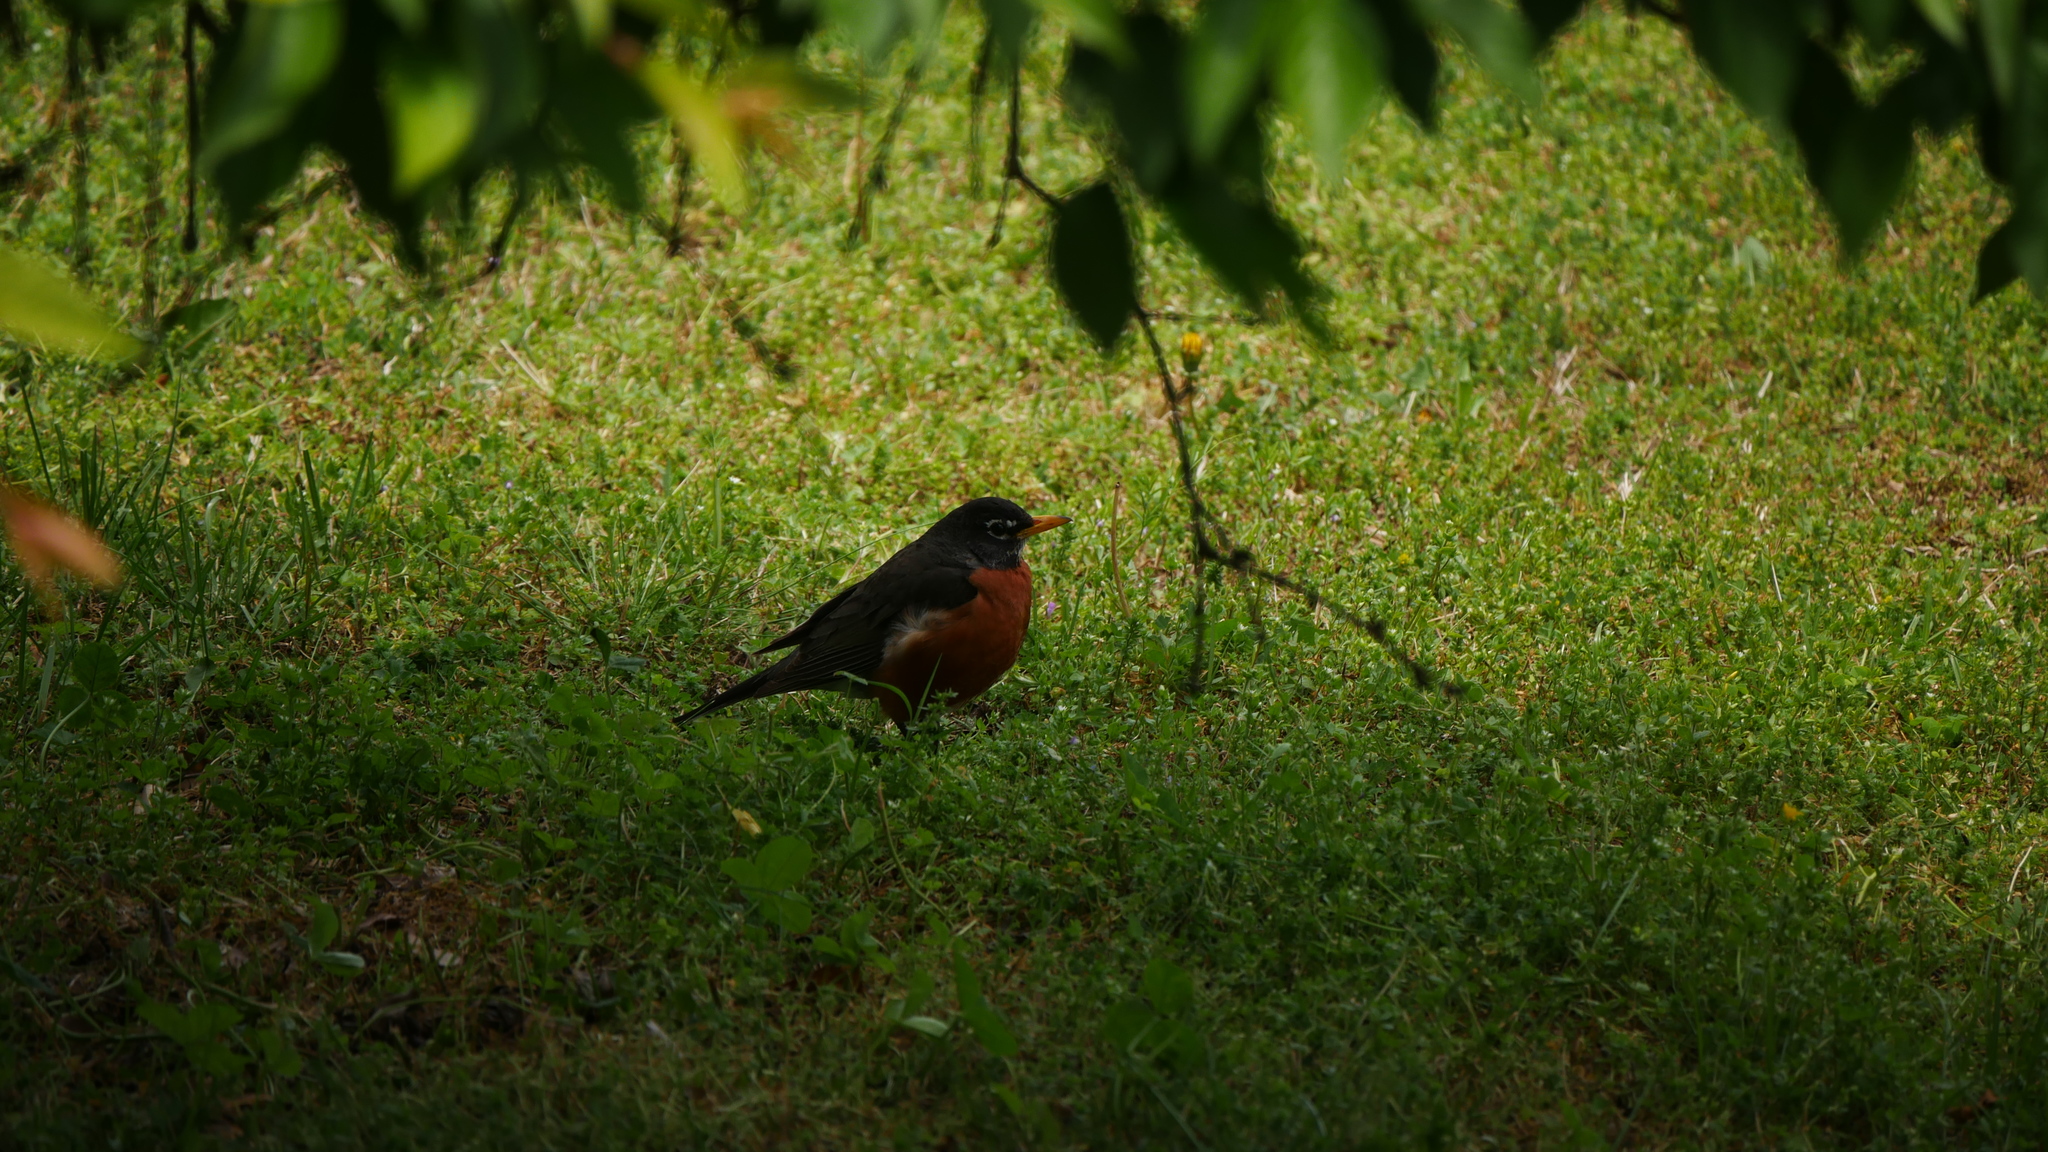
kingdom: Animalia
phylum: Chordata
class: Aves
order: Passeriformes
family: Turdidae
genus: Turdus
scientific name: Turdus migratorius
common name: American robin
